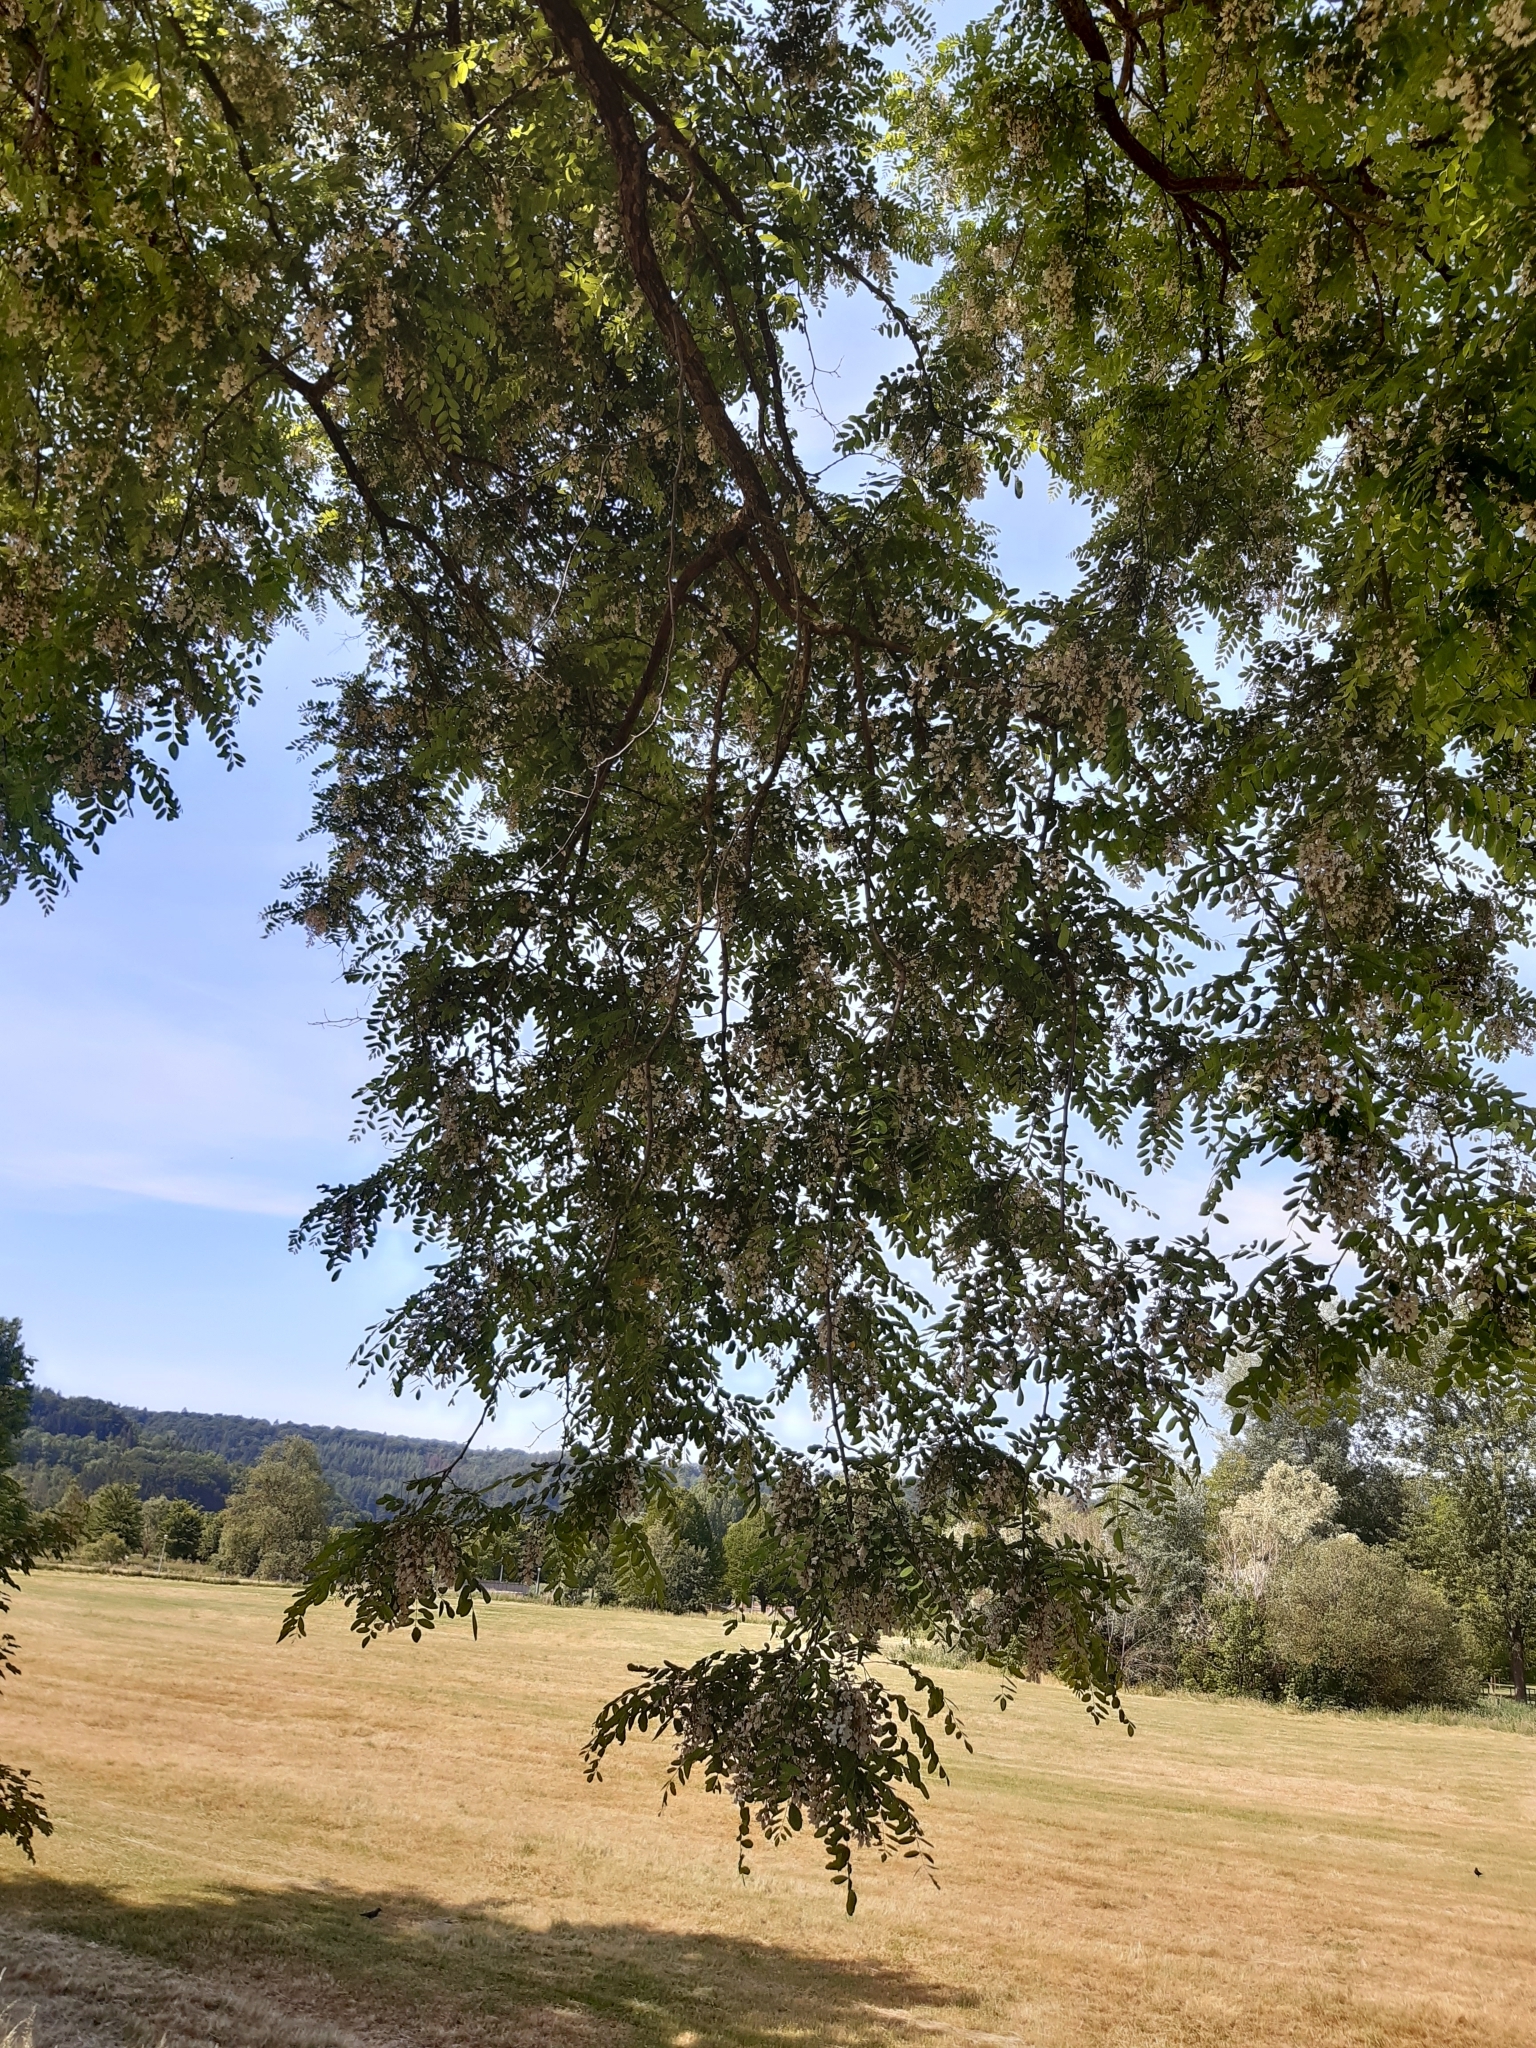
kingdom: Plantae
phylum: Tracheophyta
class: Magnoliopsida
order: Fabales
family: Fabaceae
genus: Robinia
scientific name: Robinia pseudoacacia
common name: Black locust
